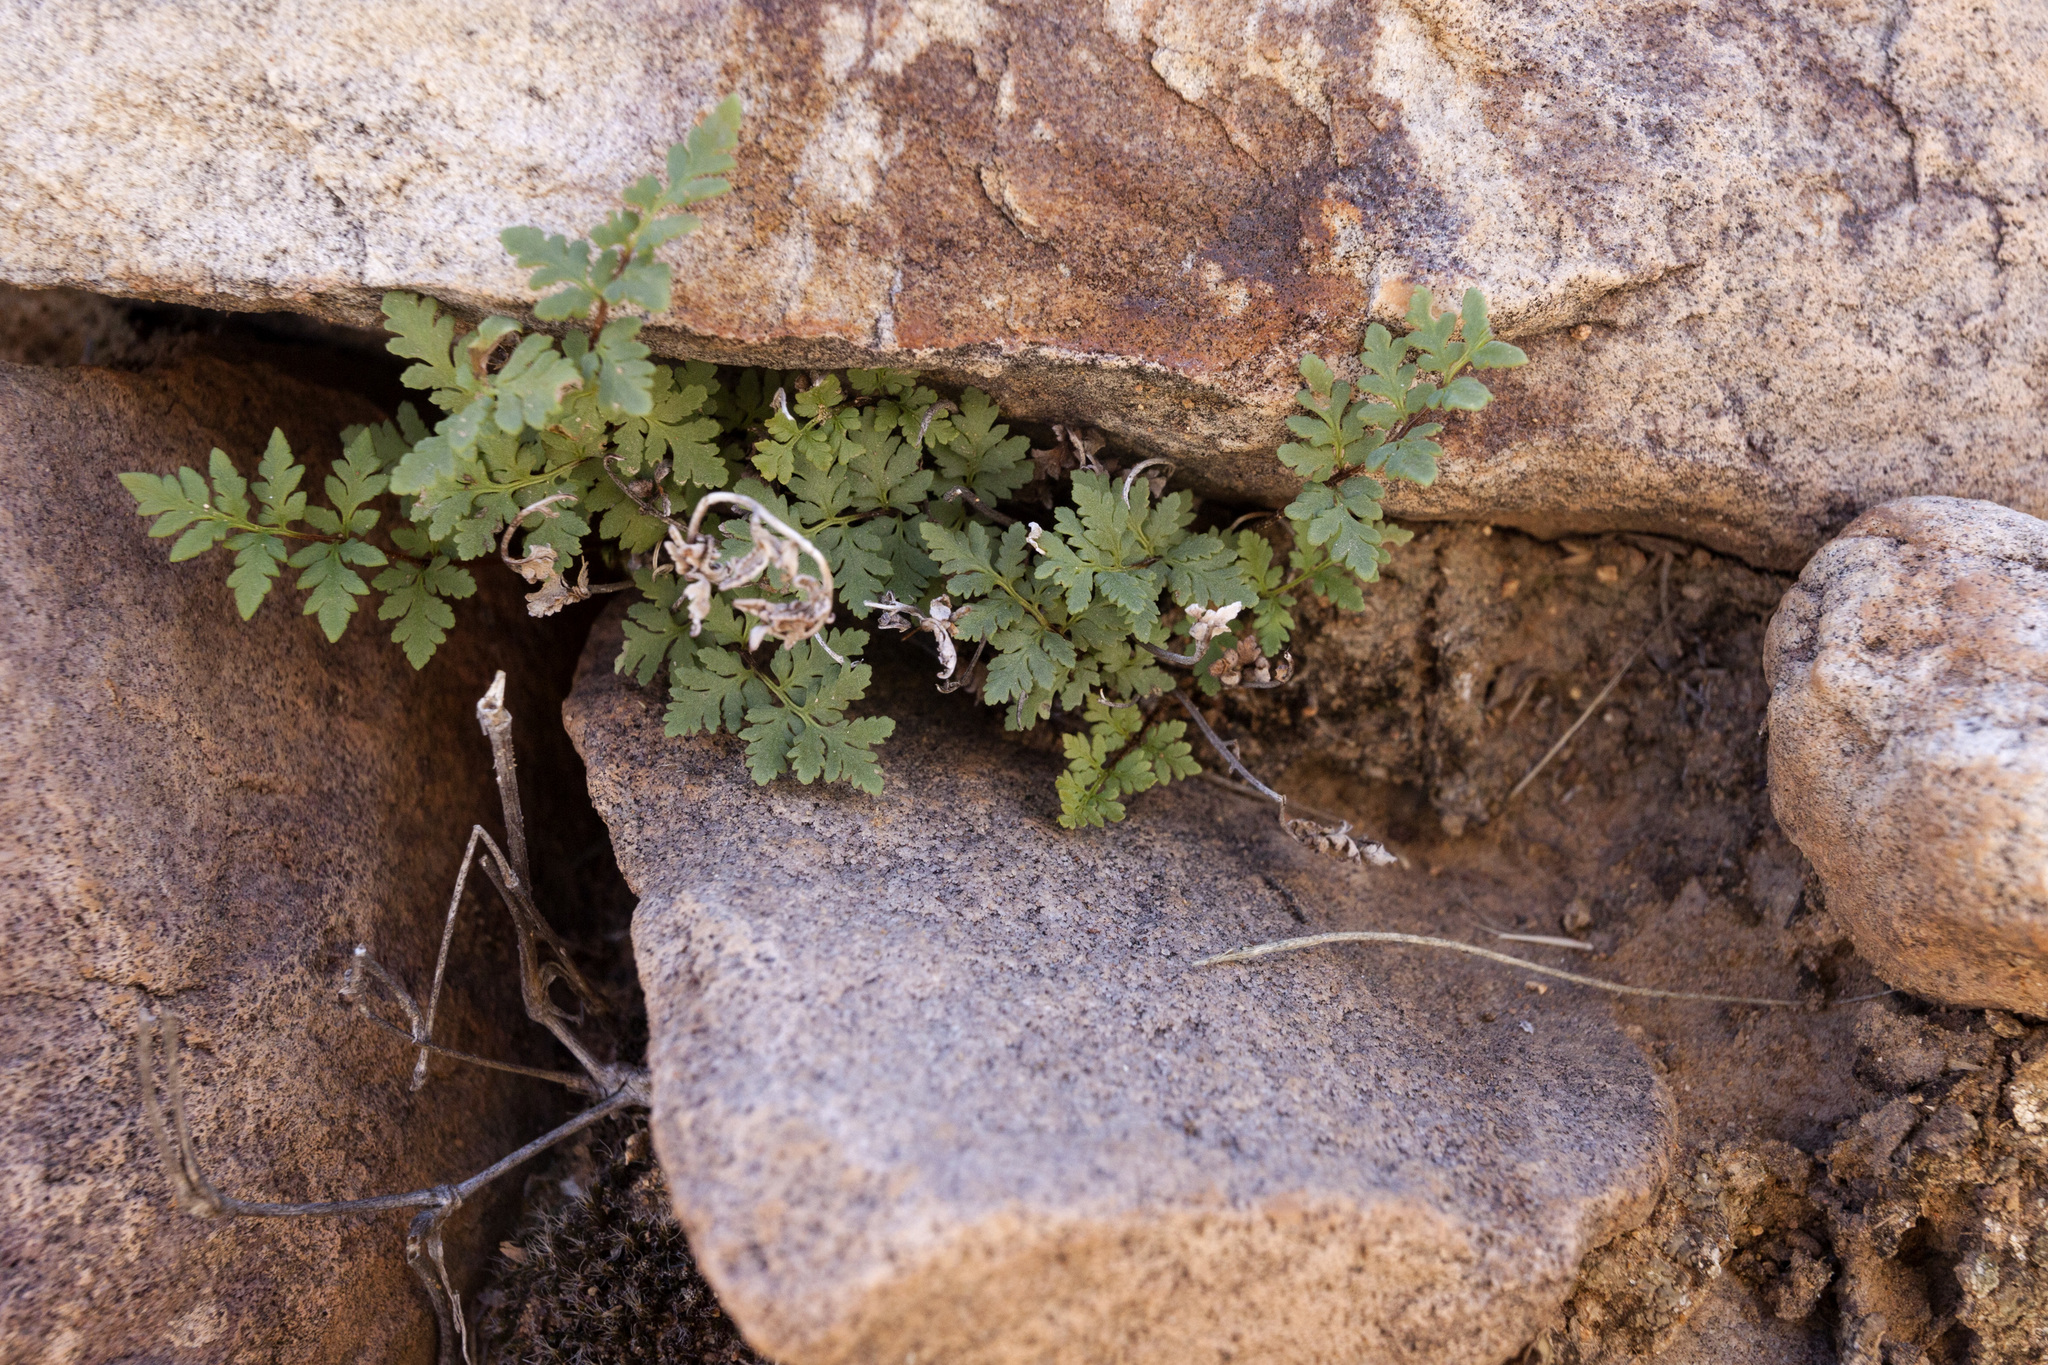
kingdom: Plantae
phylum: Tracheophyta
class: Polypodiopsida
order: Polypodiales
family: Pteridaceae
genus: Myriopteris
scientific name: Myriopteris wrightii
